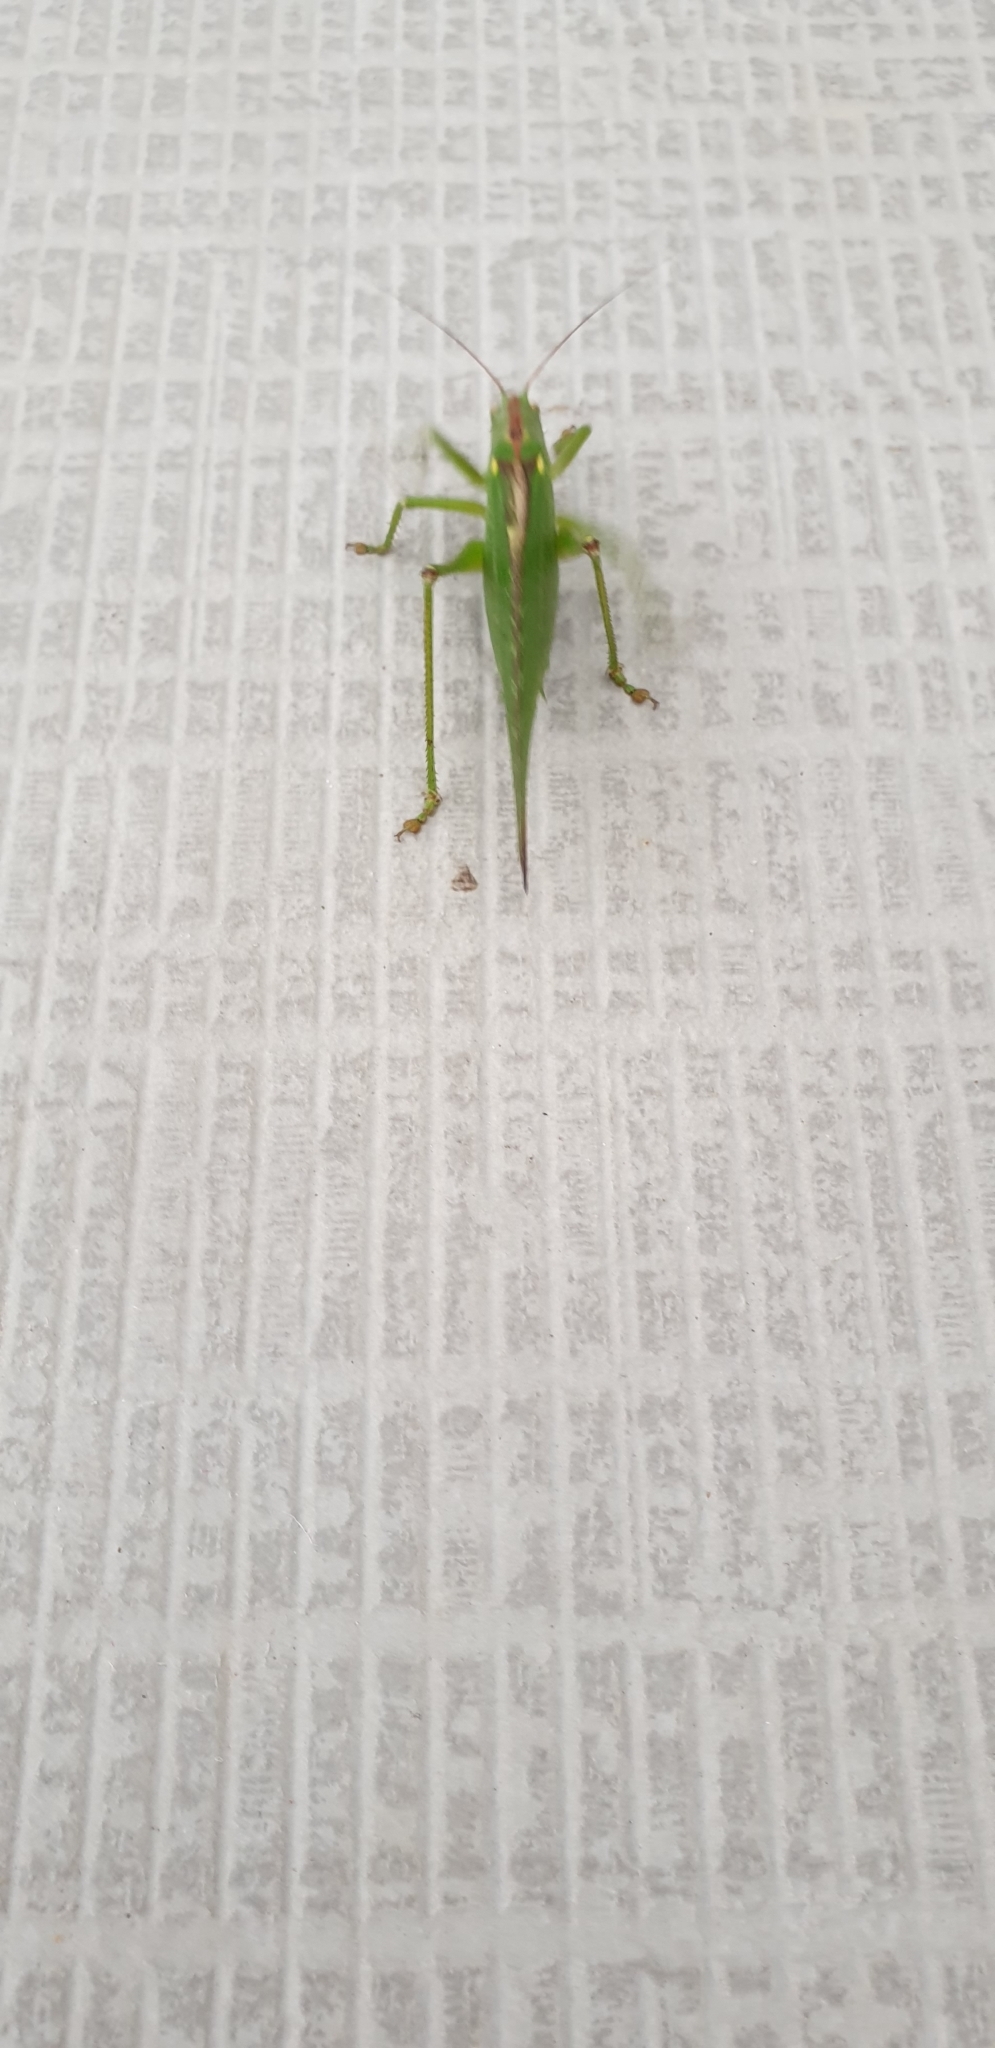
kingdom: Animalia
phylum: Arthropoda
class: Insecta
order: Orthoptera
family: Tettigoniidae
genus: Tettigonia
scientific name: Tettigonia viridissima
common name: Great green bush-cricket
